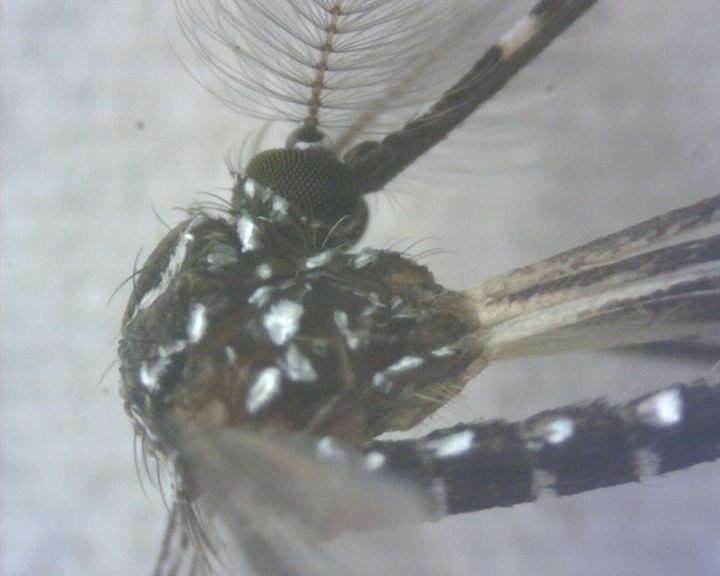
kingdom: Animalia
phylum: Arthropoda
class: Insecta
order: Diptera
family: Culicidae
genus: Aedes
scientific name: Aedes aegypti
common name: Yellow fever mosquito
